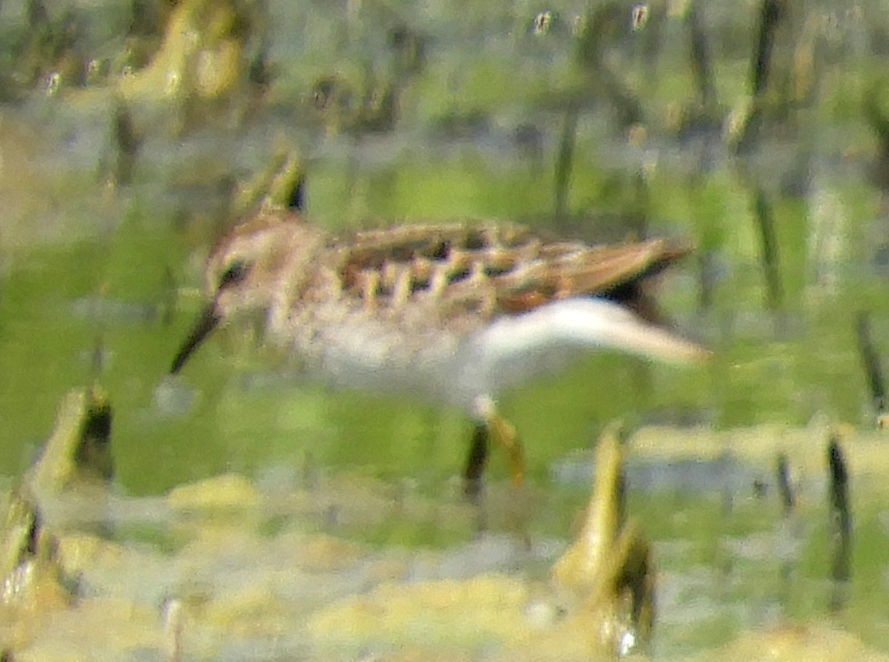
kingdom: Animalia
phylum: Chordata
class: Aves
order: Charadriiformes
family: Scolopacidae
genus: Calidris
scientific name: Calidris minutilla
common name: Least sandpiper
